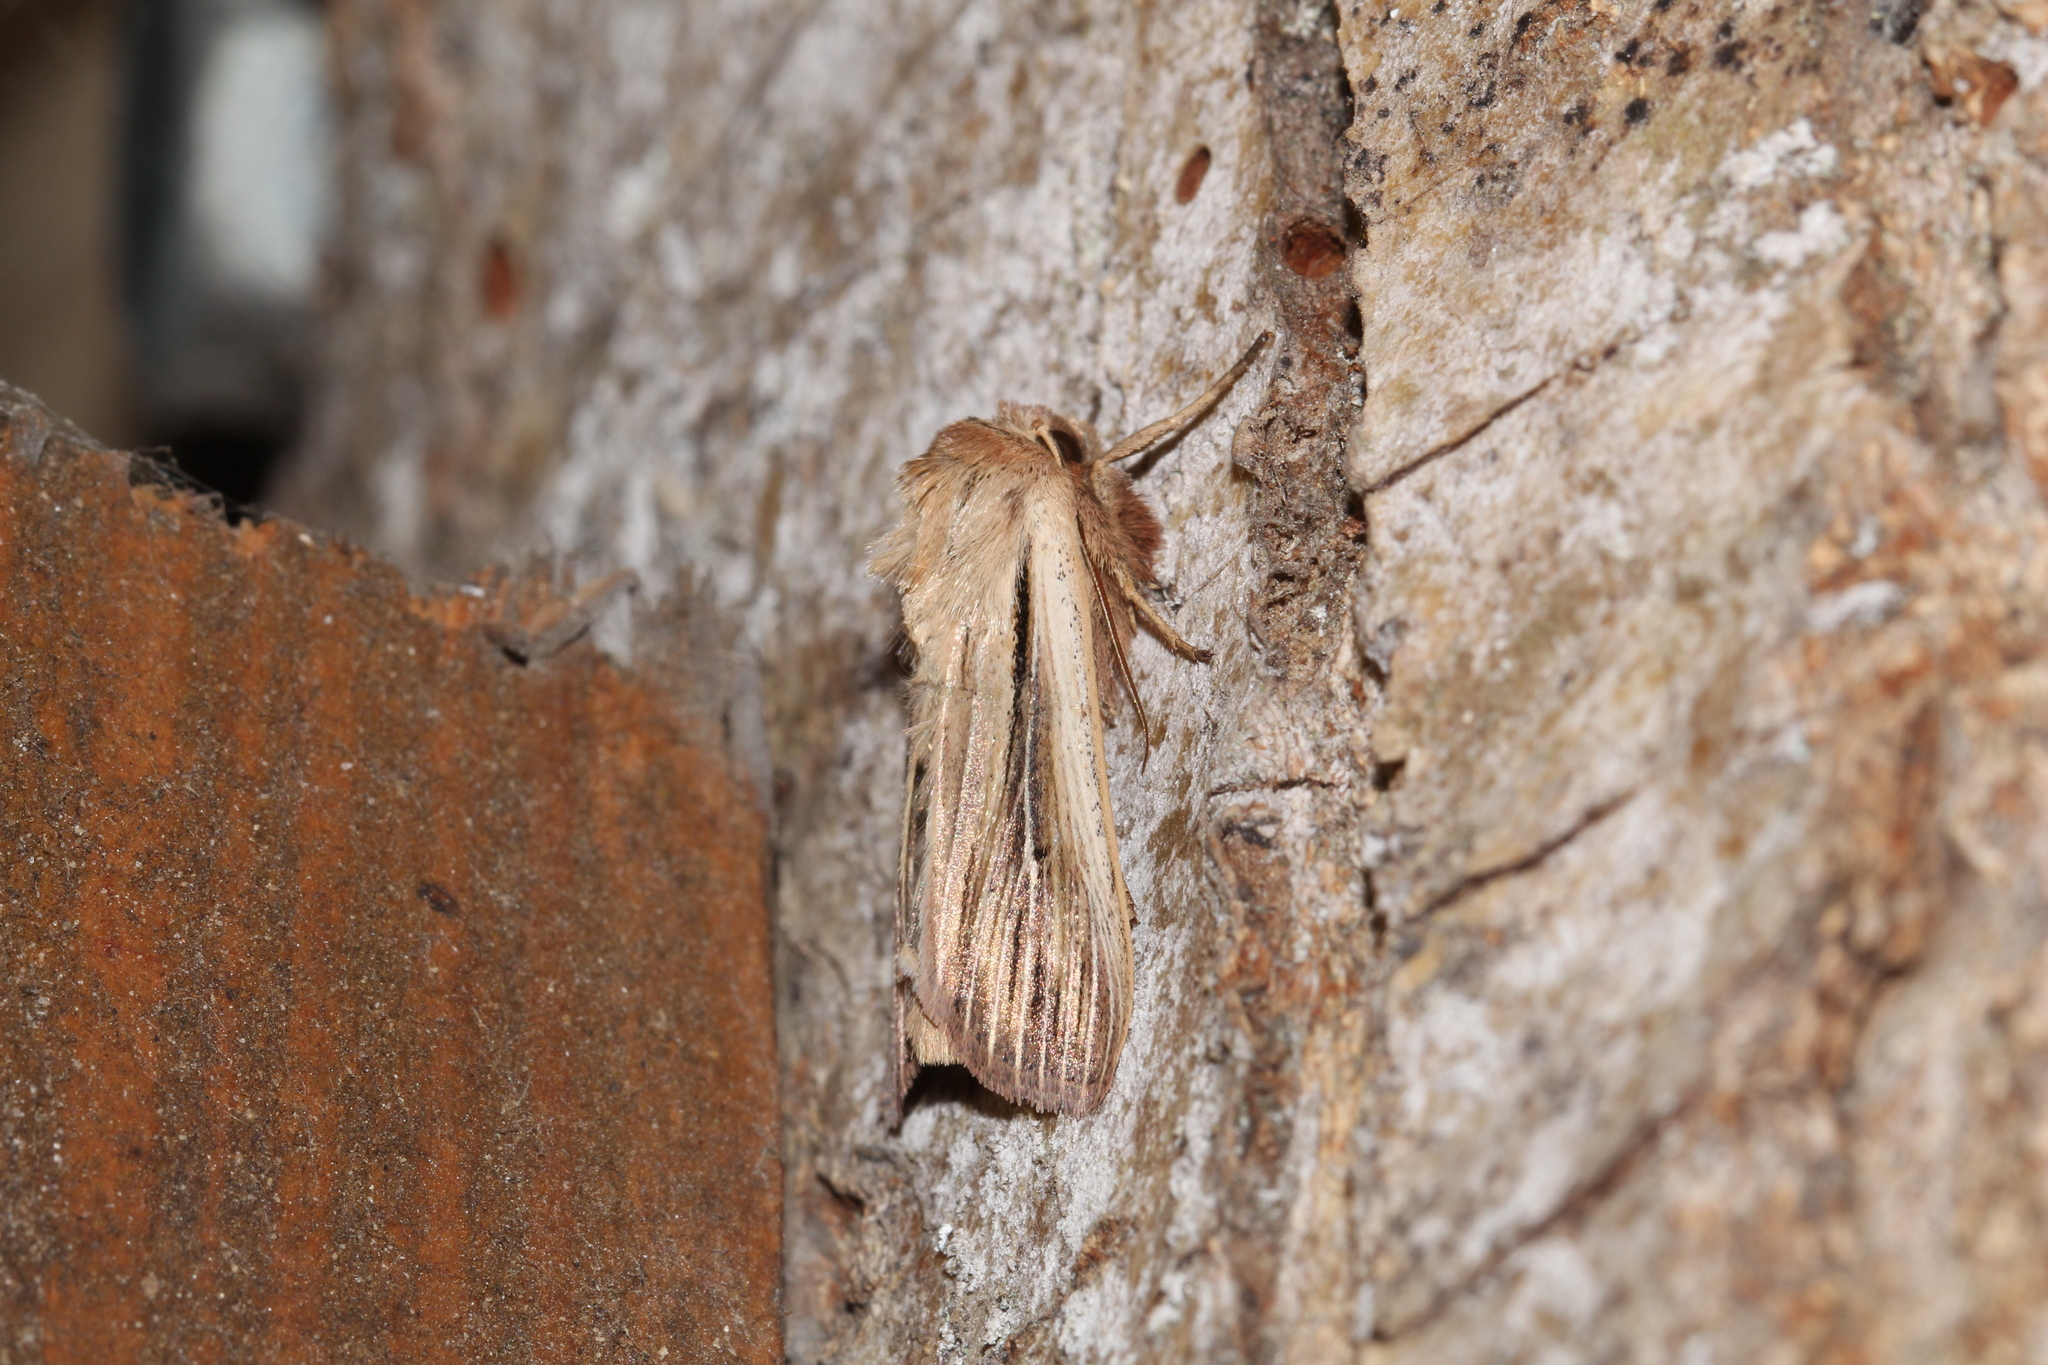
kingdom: Animalia
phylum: Arthropoda
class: Insecta
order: Lepidoptera
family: Noctuidae
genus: Leucania
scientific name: Leucania comma
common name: Shoulder-striped wainscot
